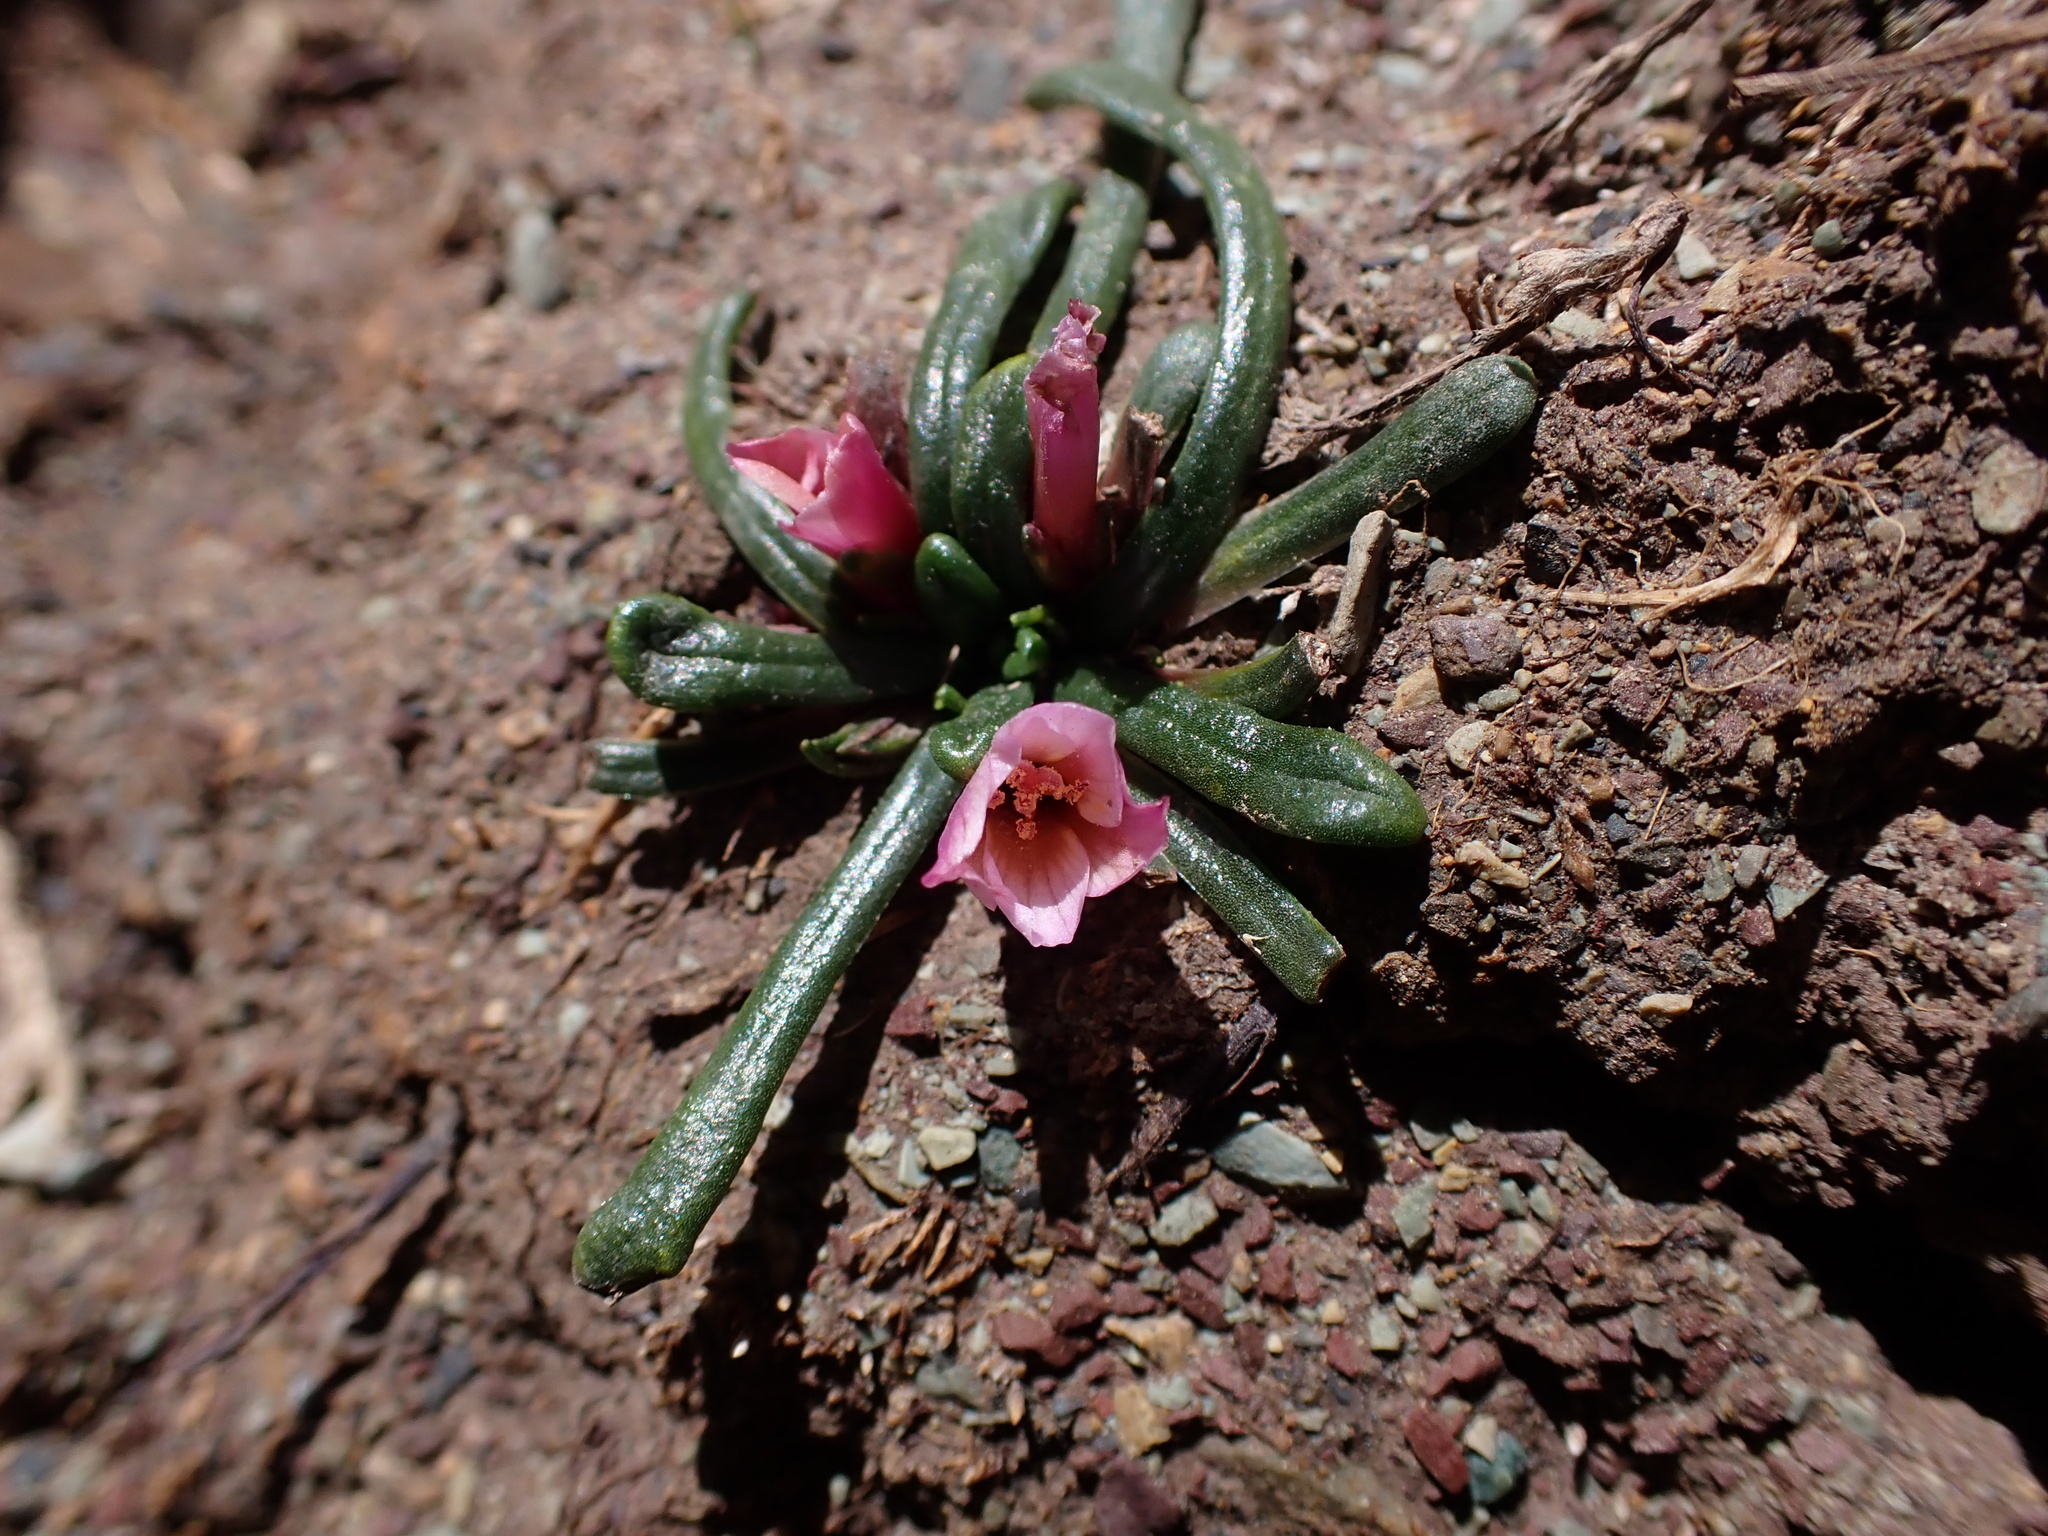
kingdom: Plantae
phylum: Tracheophyta
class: Magnoliopsida
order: Caryophyllales
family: Montiaceae
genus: Calandrinia
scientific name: Calandrinia acaulis
